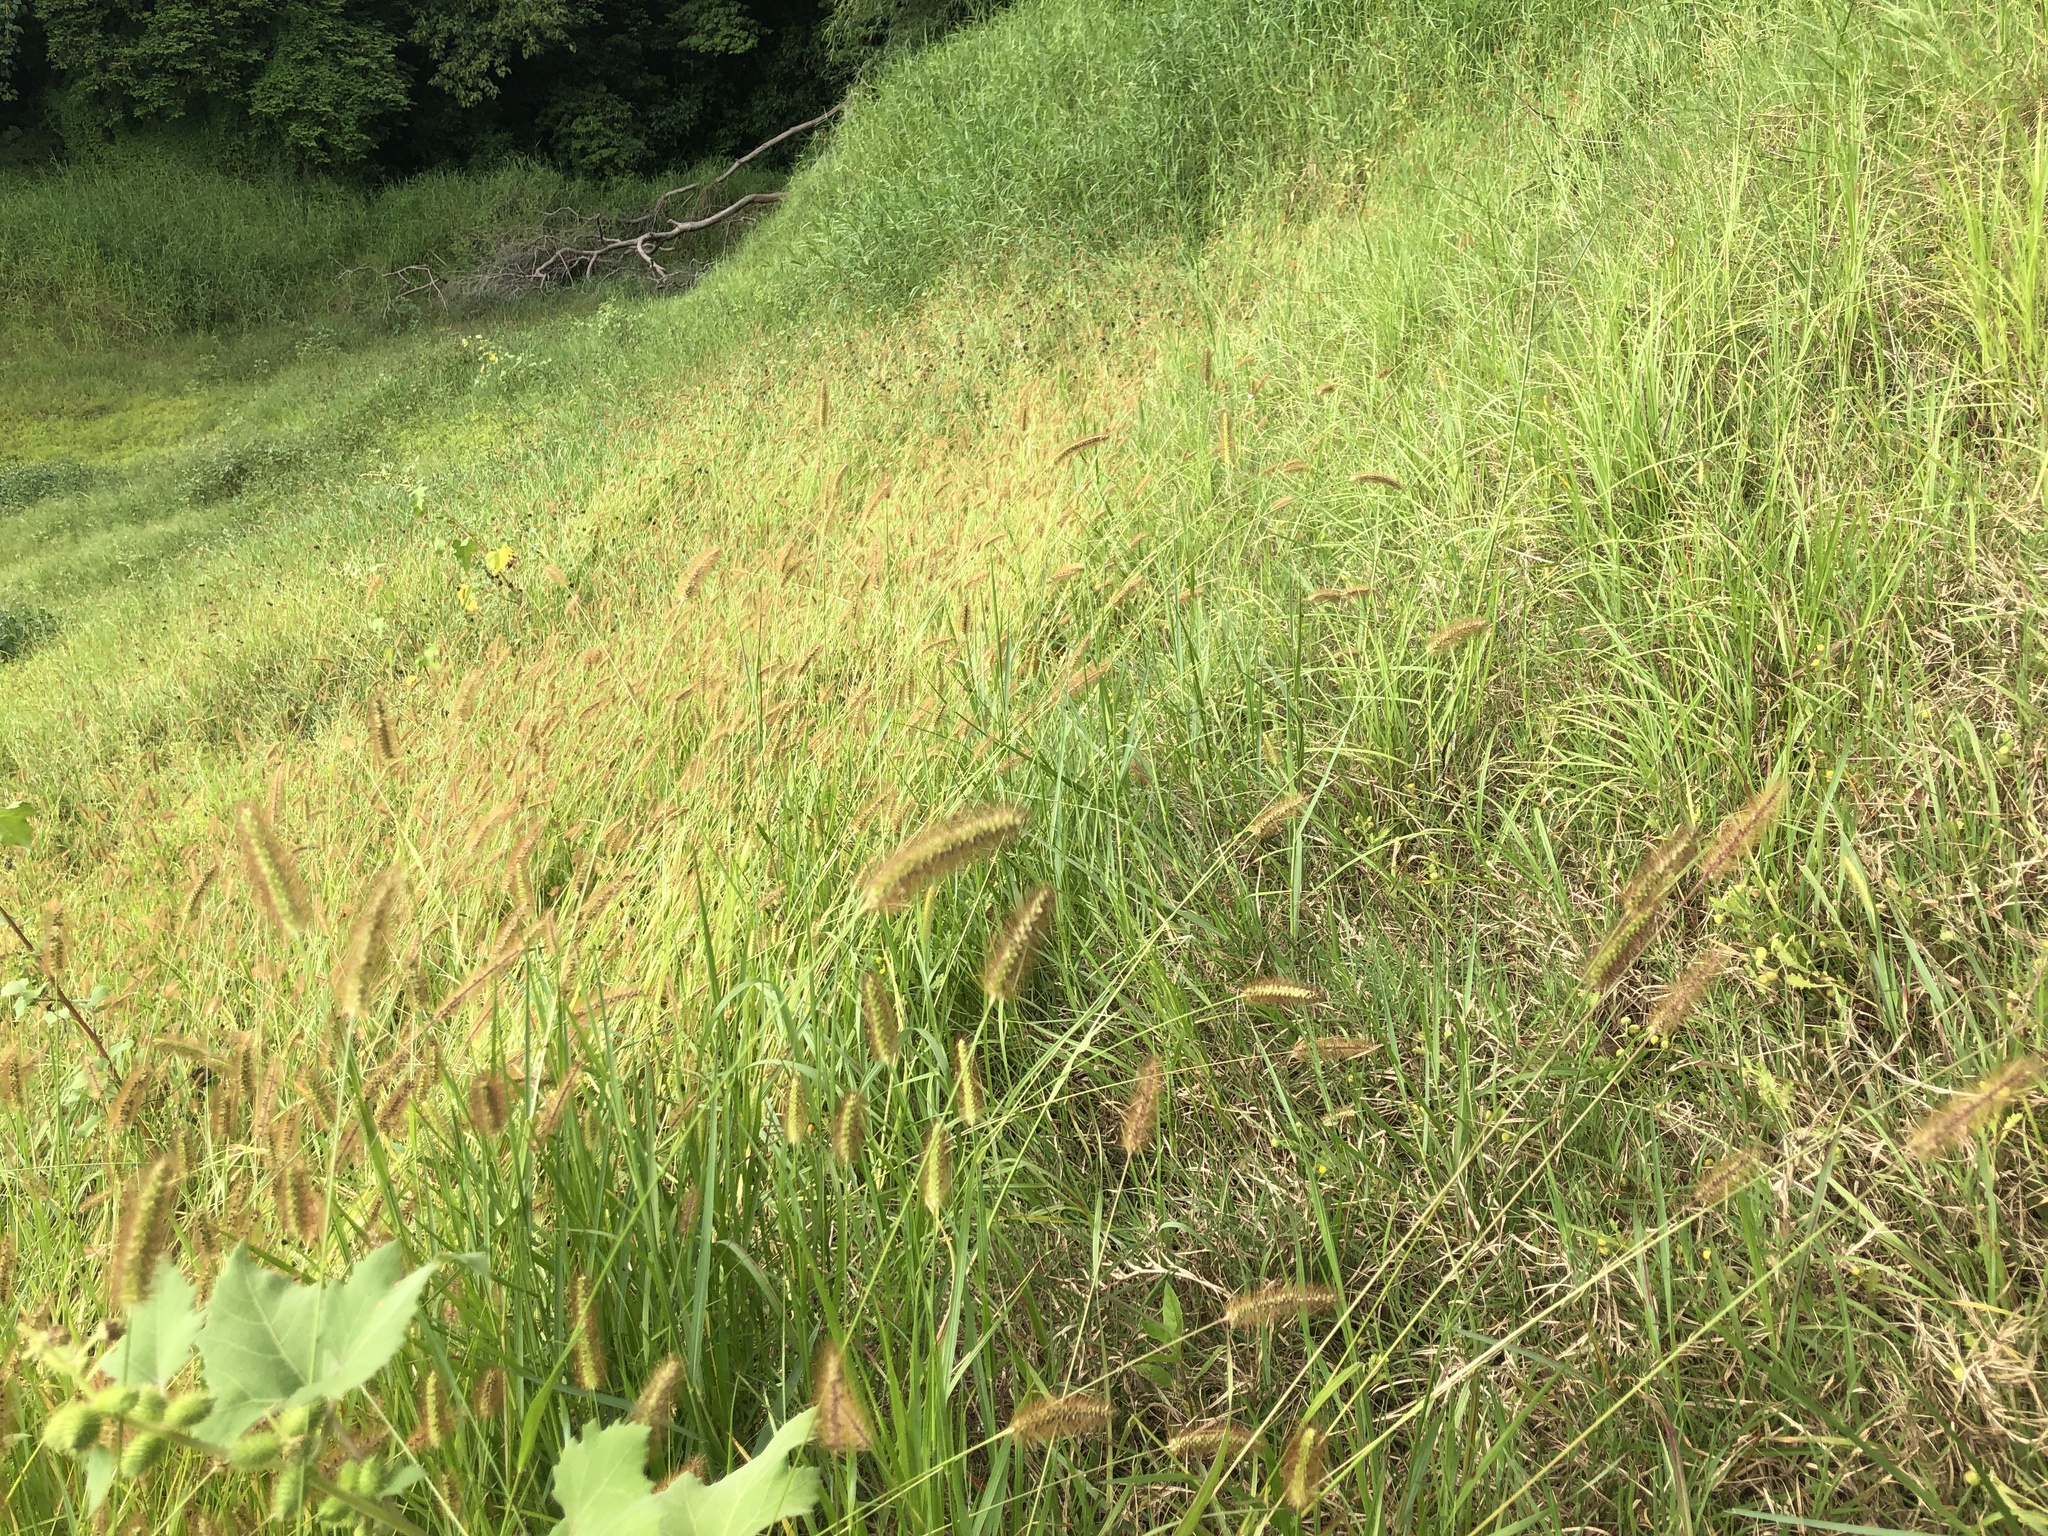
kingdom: Plantae
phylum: Tracheophyta
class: Liliopsida
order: Poales
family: Poaceae
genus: Setaria
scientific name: Setaria pumila
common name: Yellow bristle-grass
